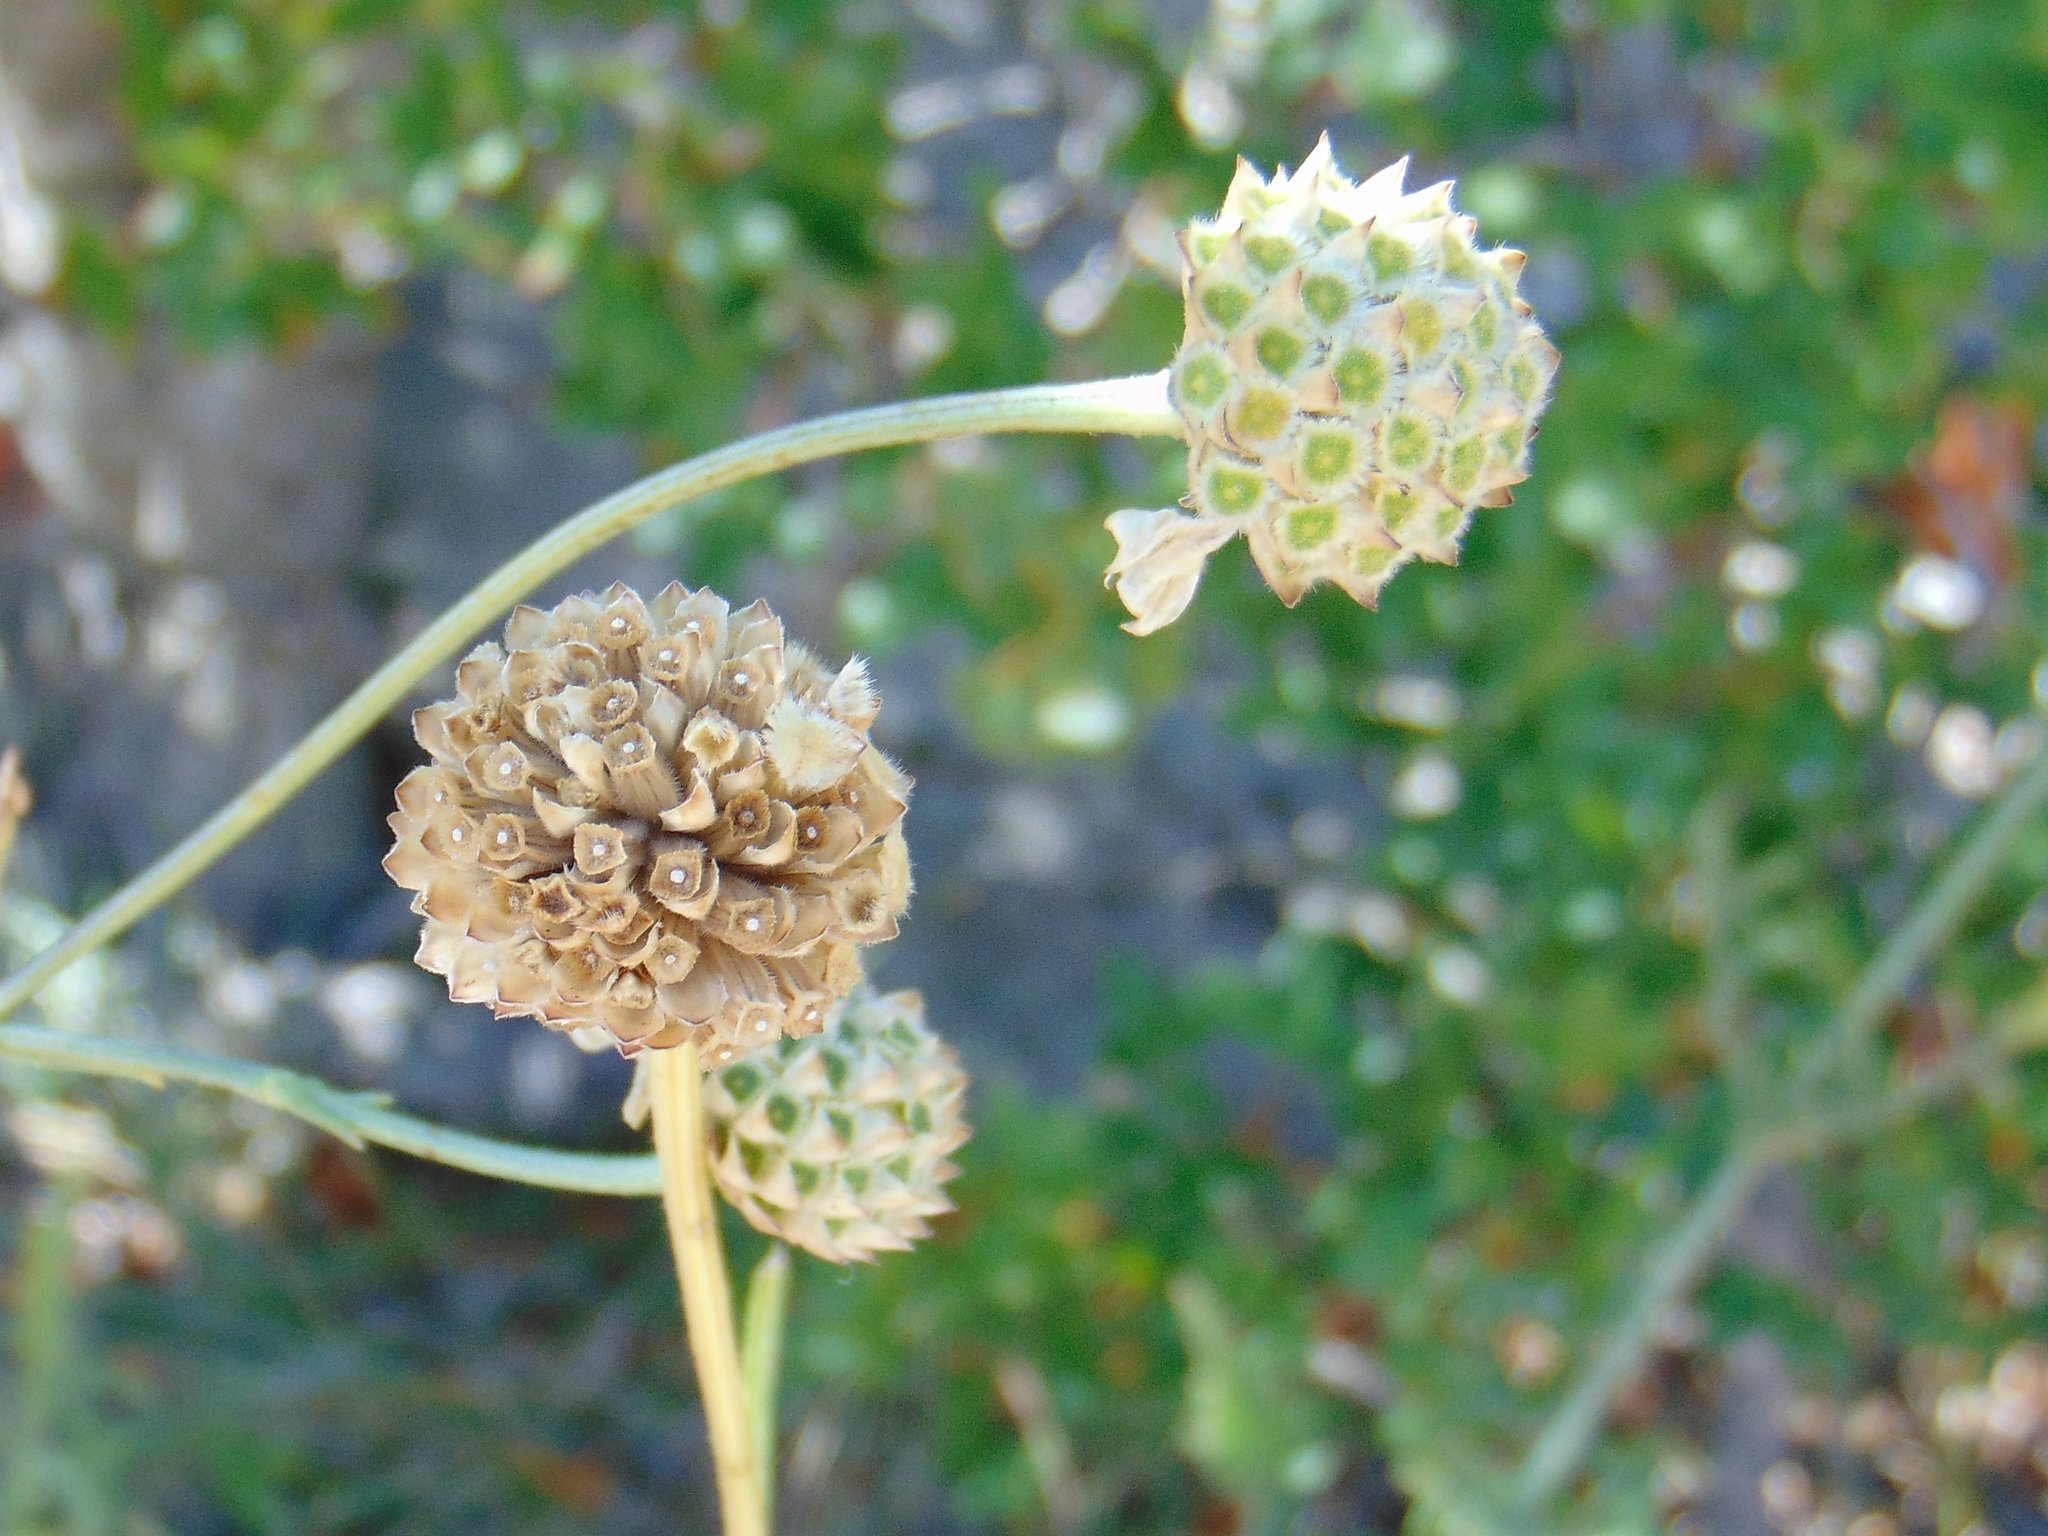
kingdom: Plantae
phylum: Tracheophyta
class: Magnoliopsida
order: Dipsacales
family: Caprifoliaceae
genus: Cephalaria
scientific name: Cephalaria leucantha
